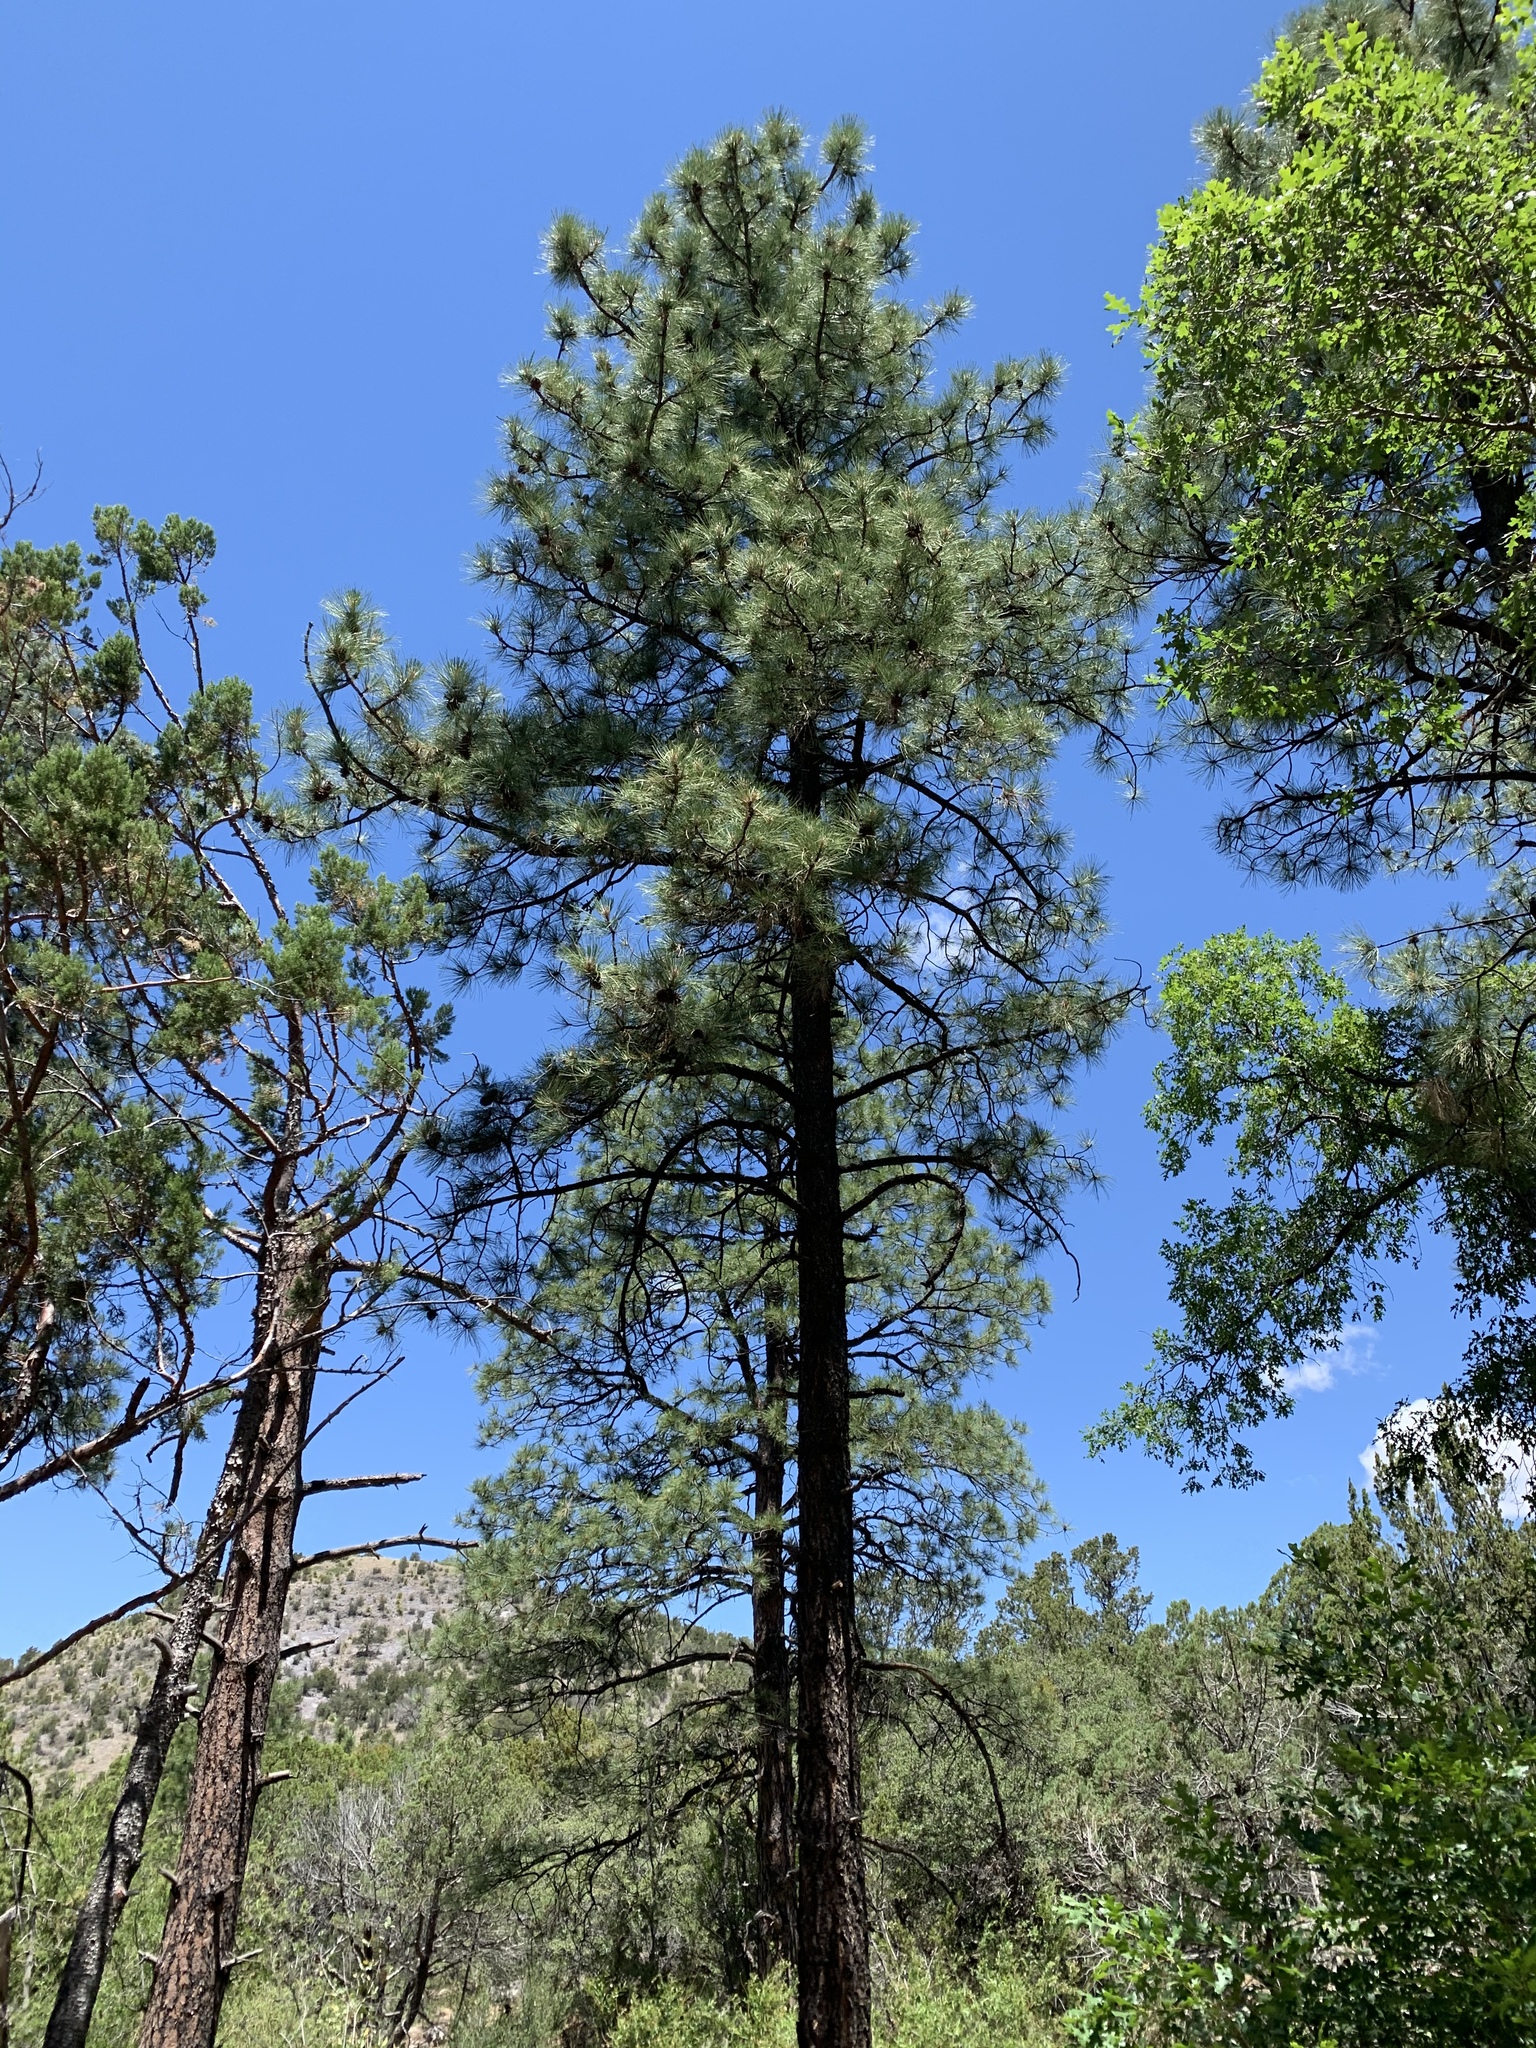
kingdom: Plantae
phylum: Tracheophyta
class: Pinopsida
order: Pinales
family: Pinaceae
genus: Pinus
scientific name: Pinus ponderosa
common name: Western yellow-pine
